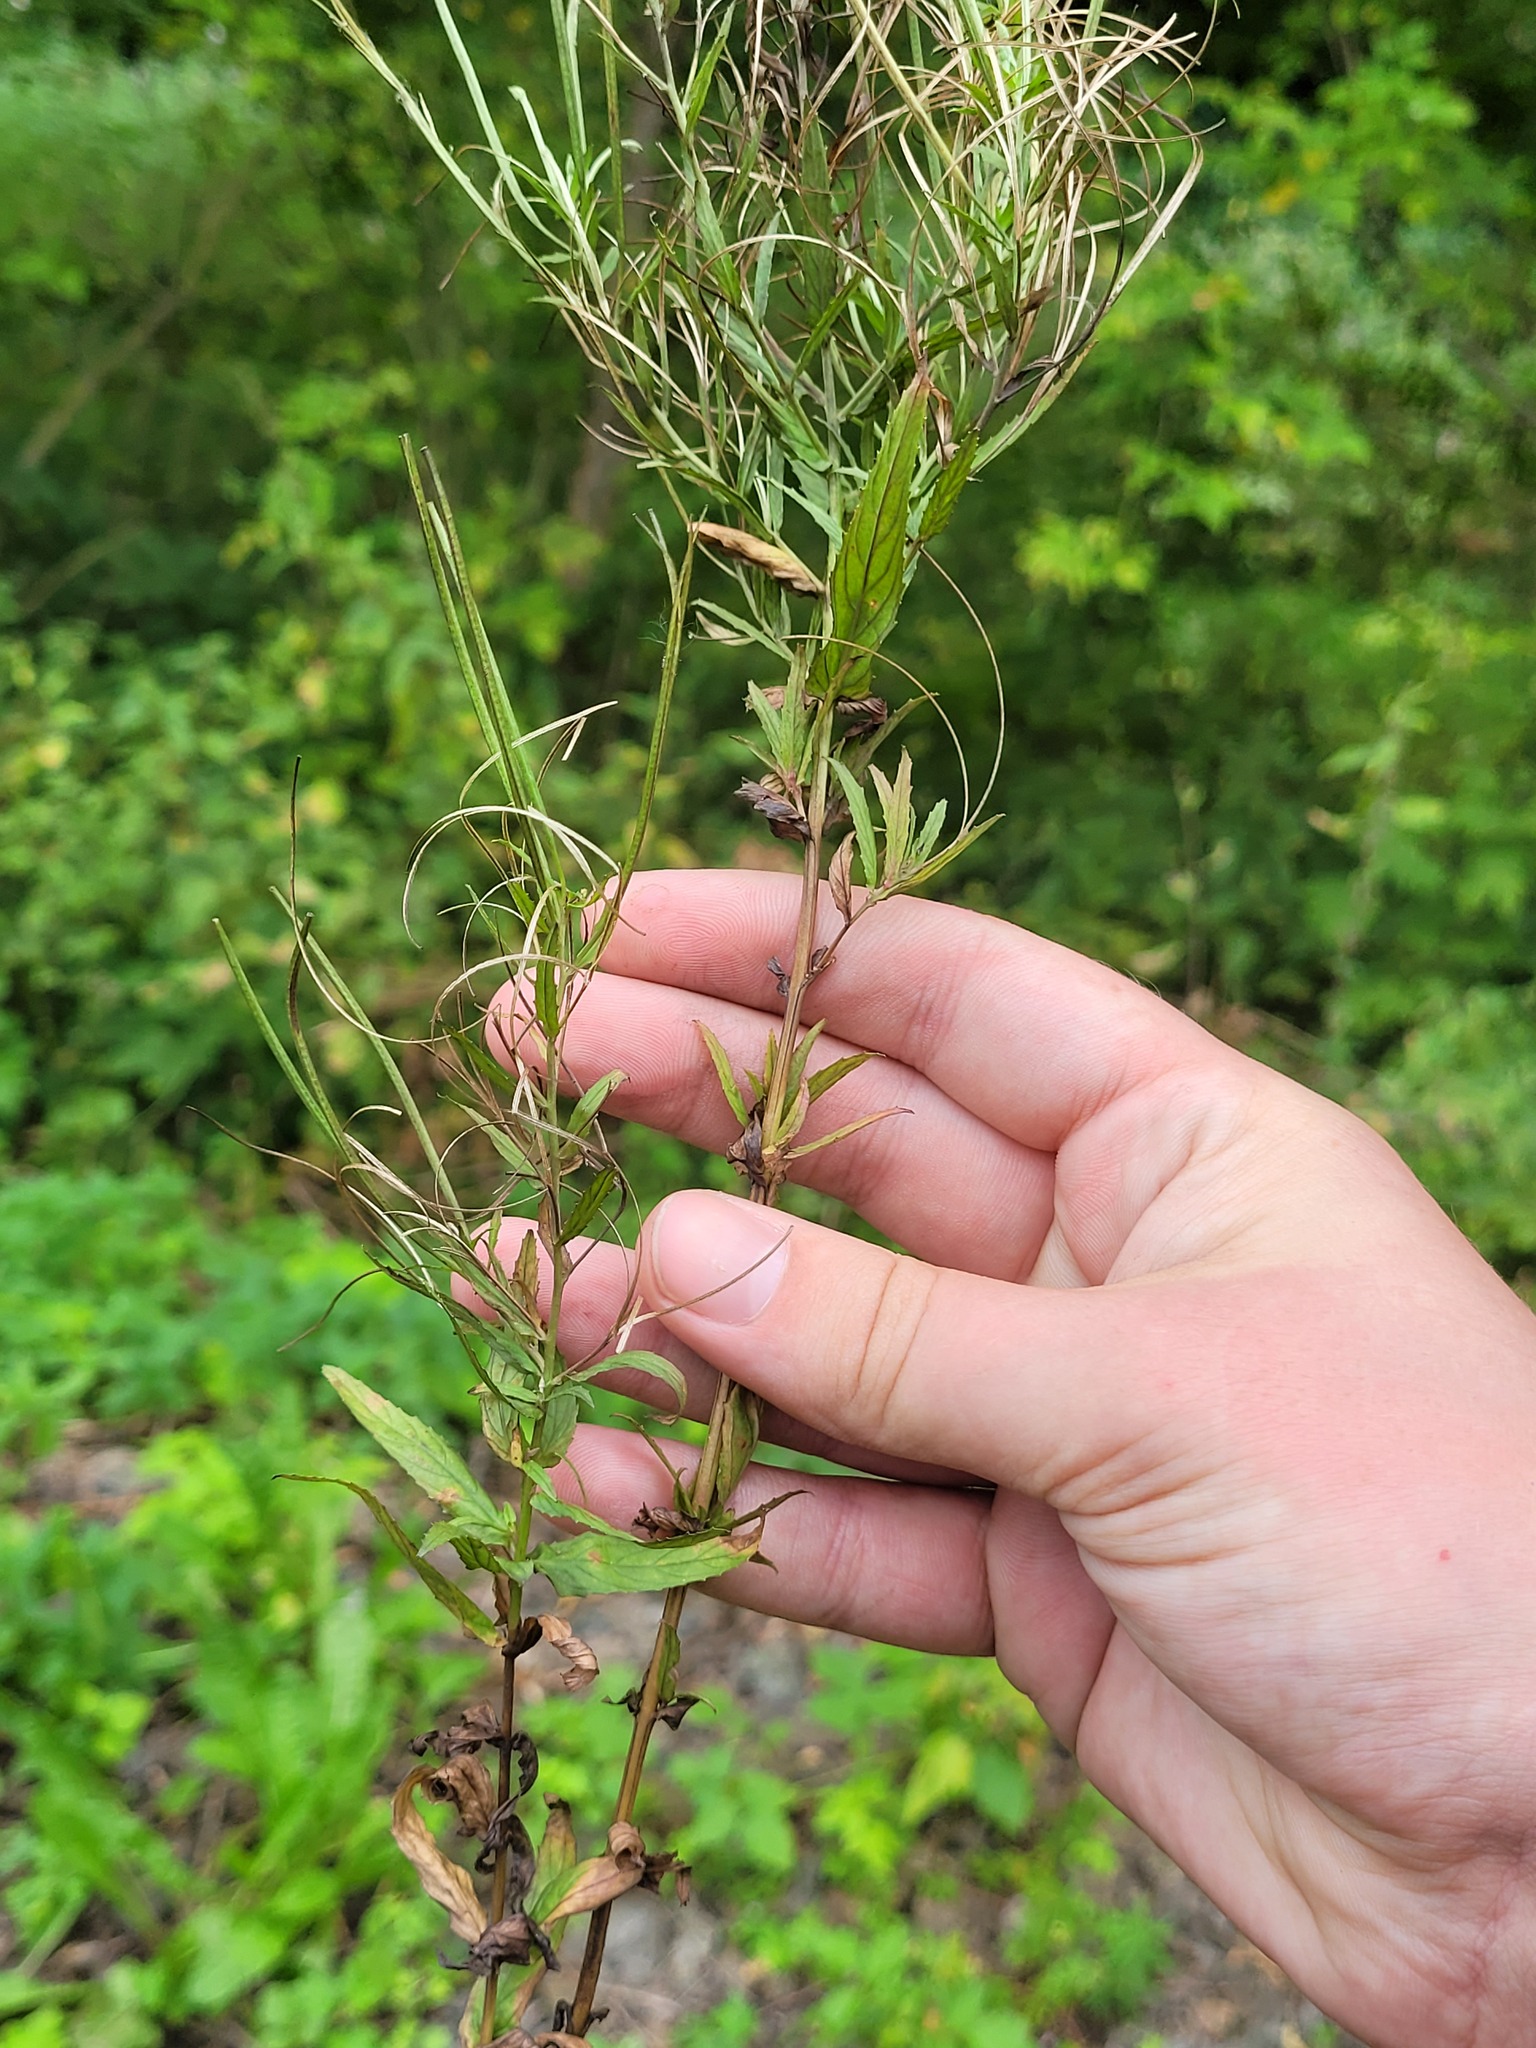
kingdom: Plantae
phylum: Tracheophyta
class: Magnoliopsida
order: Myrtales
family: Onagraceae
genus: Epilobium
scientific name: Epilobium tetragonum
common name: Square-stemmed willowherb
